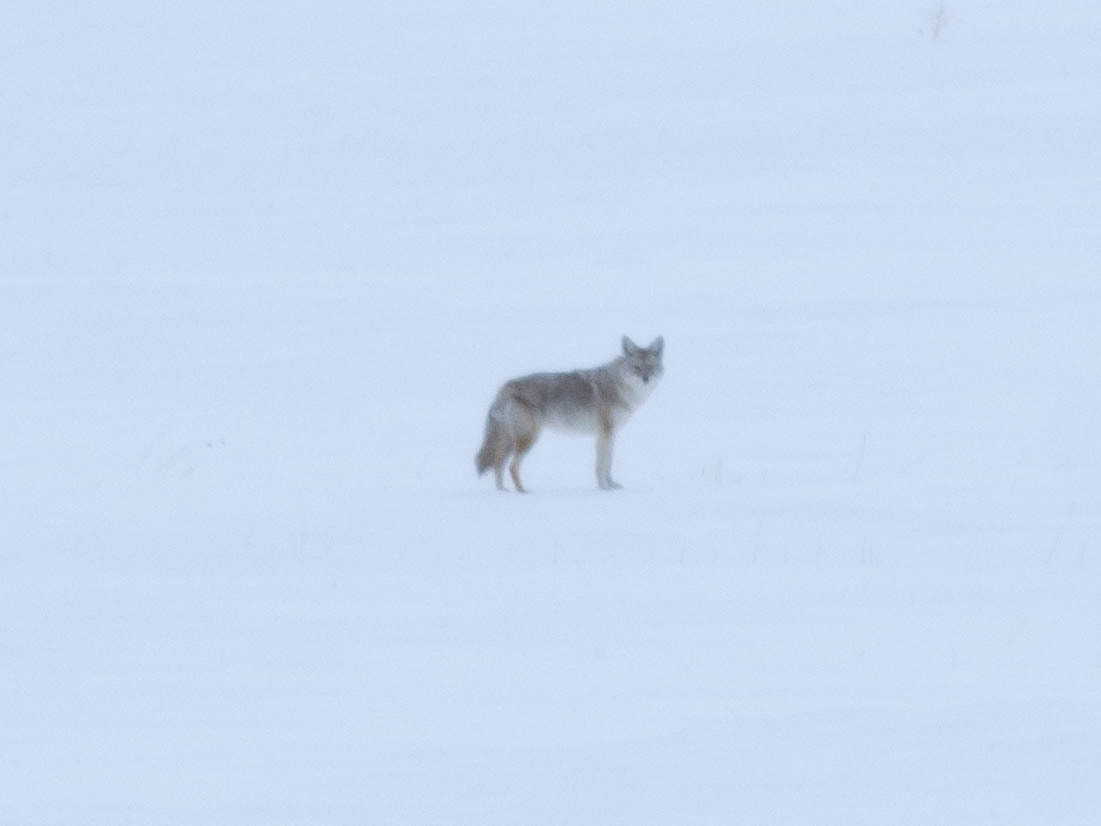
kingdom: Animalia
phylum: Chordata
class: Mammalia
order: Carnivora
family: Canidae
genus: Canis
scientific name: Canis latrans
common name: Coyote
